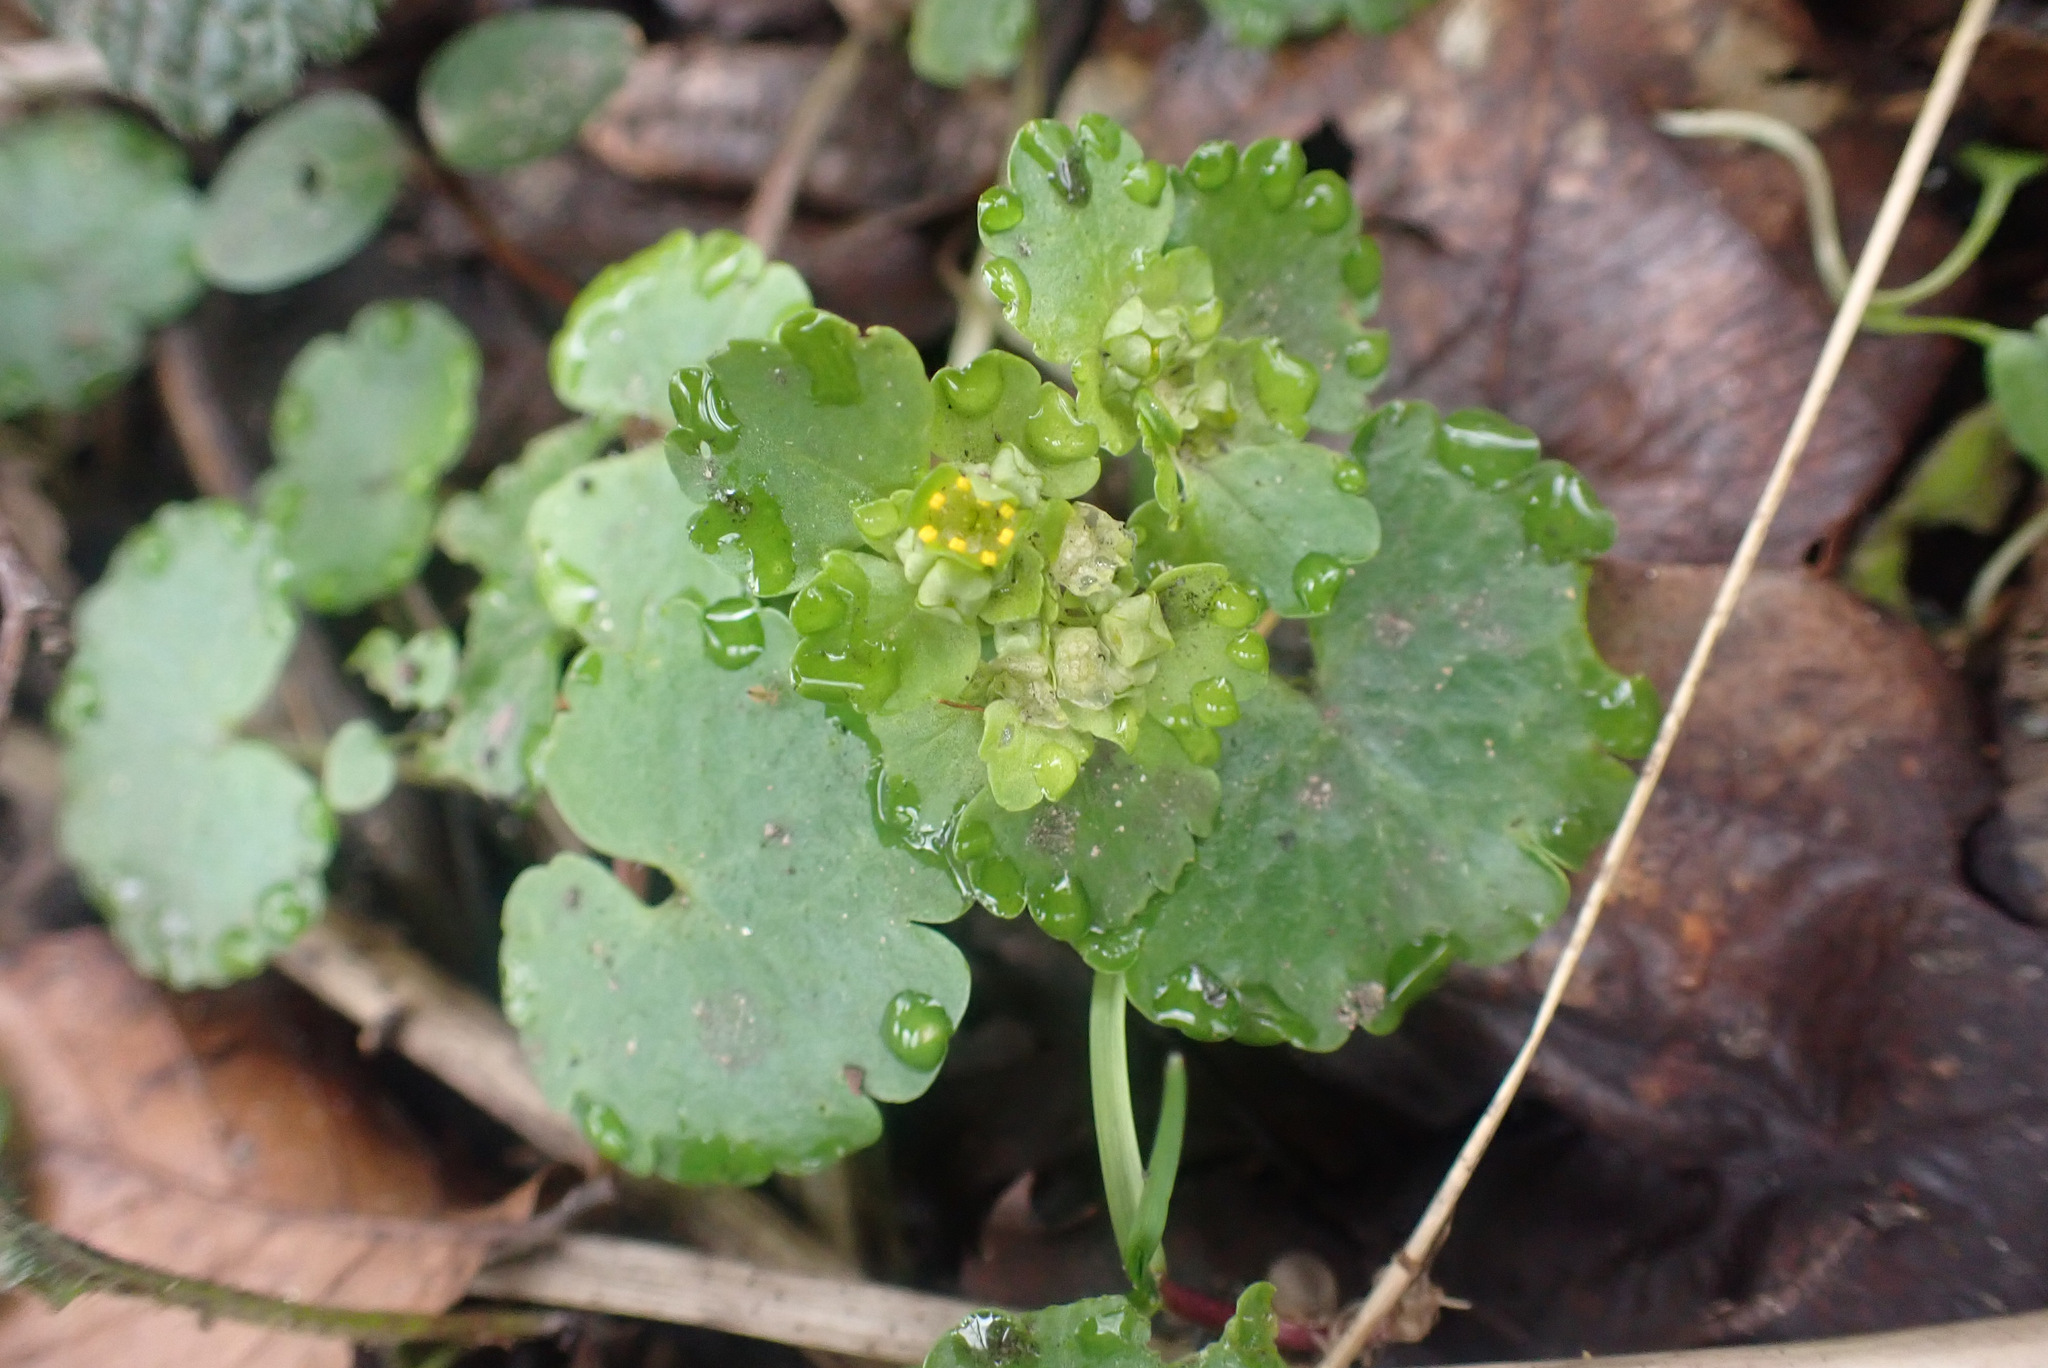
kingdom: Plantae
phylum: Tracheophyta
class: Magnoliopsida
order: Saxifragales
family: Saxifragaceae
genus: Chrysosplenium
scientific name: Chrysosplenium alternifolium
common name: Alternate-leaved golden-saxifrage
